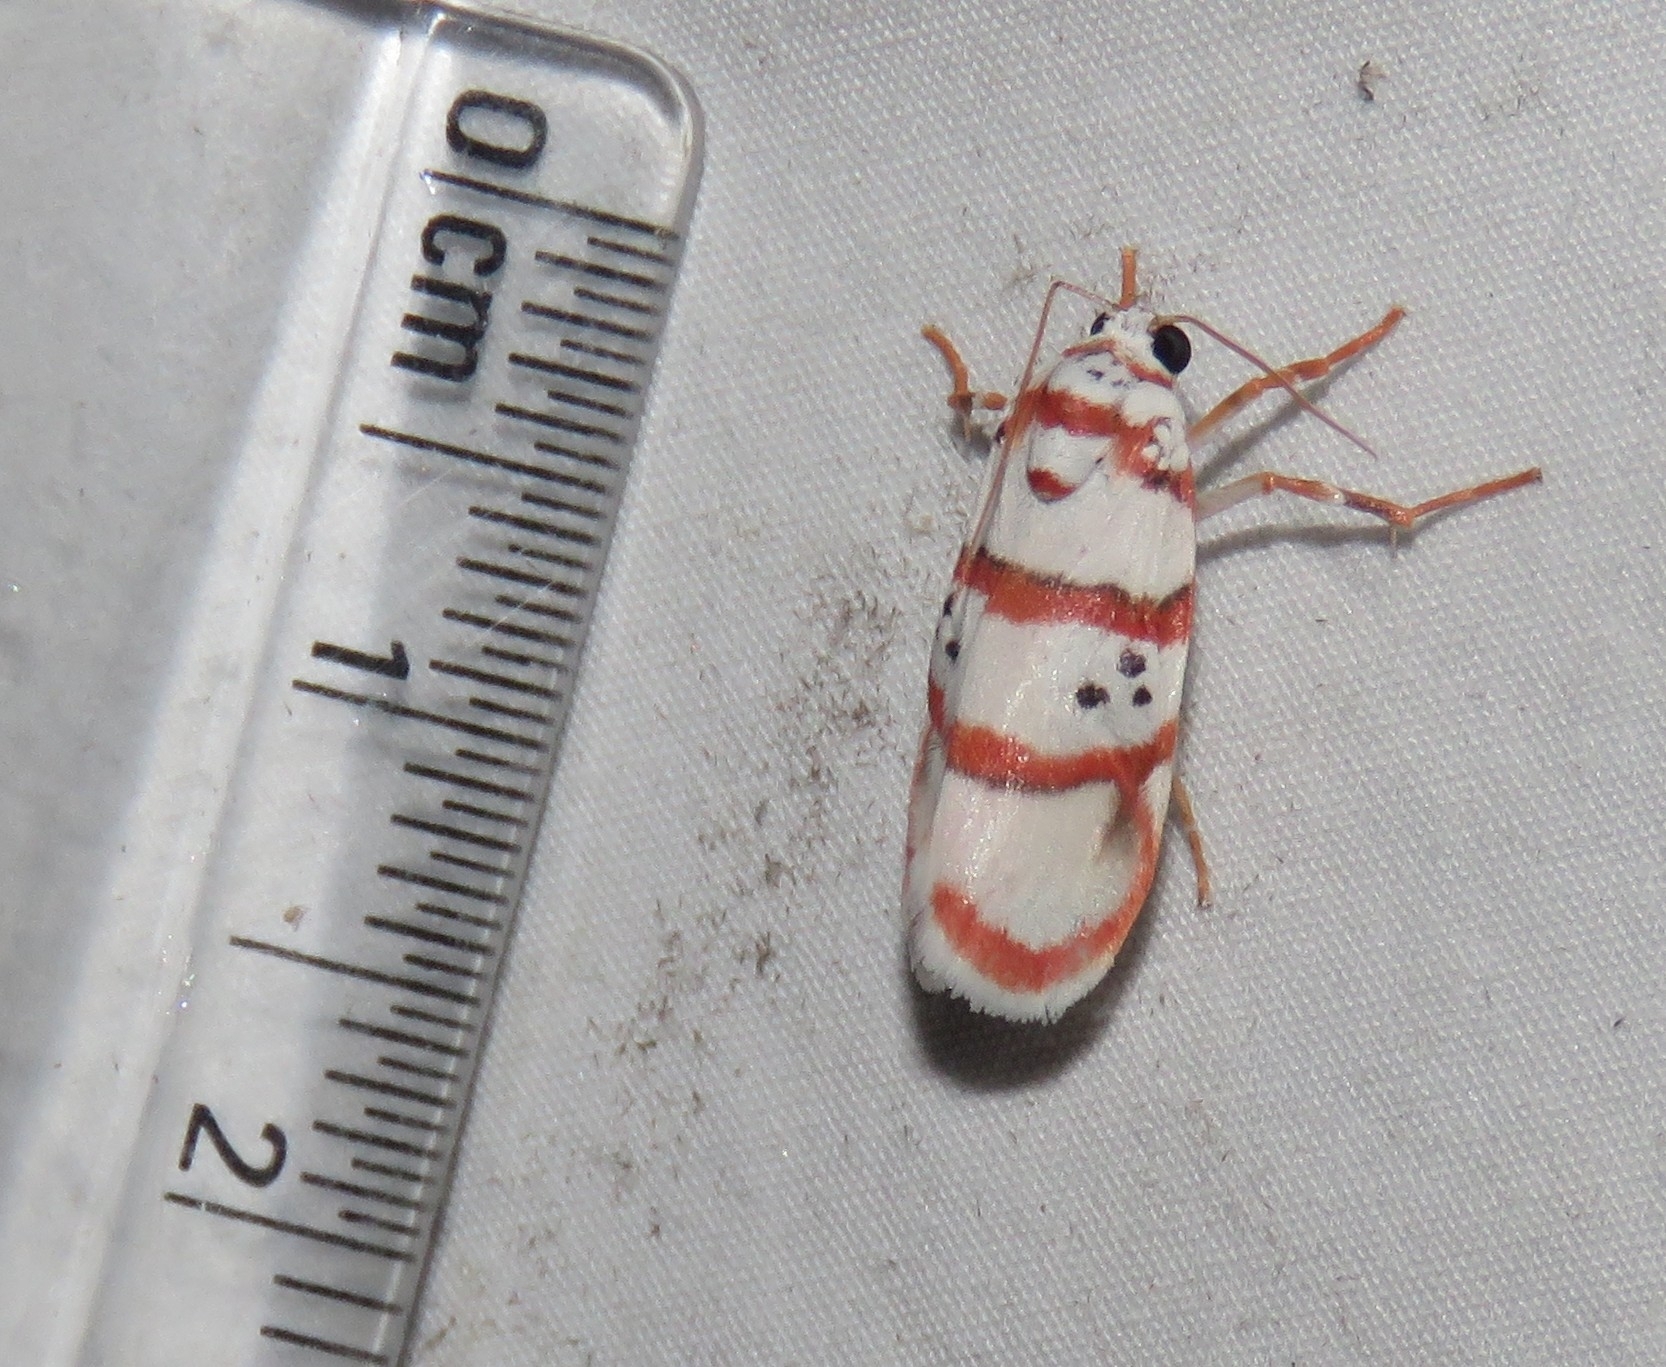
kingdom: Animalia
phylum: Arthropoda
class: Insecta
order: Lepidoptera
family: Erebidae
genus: Cyana
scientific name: Cyana peregrina
